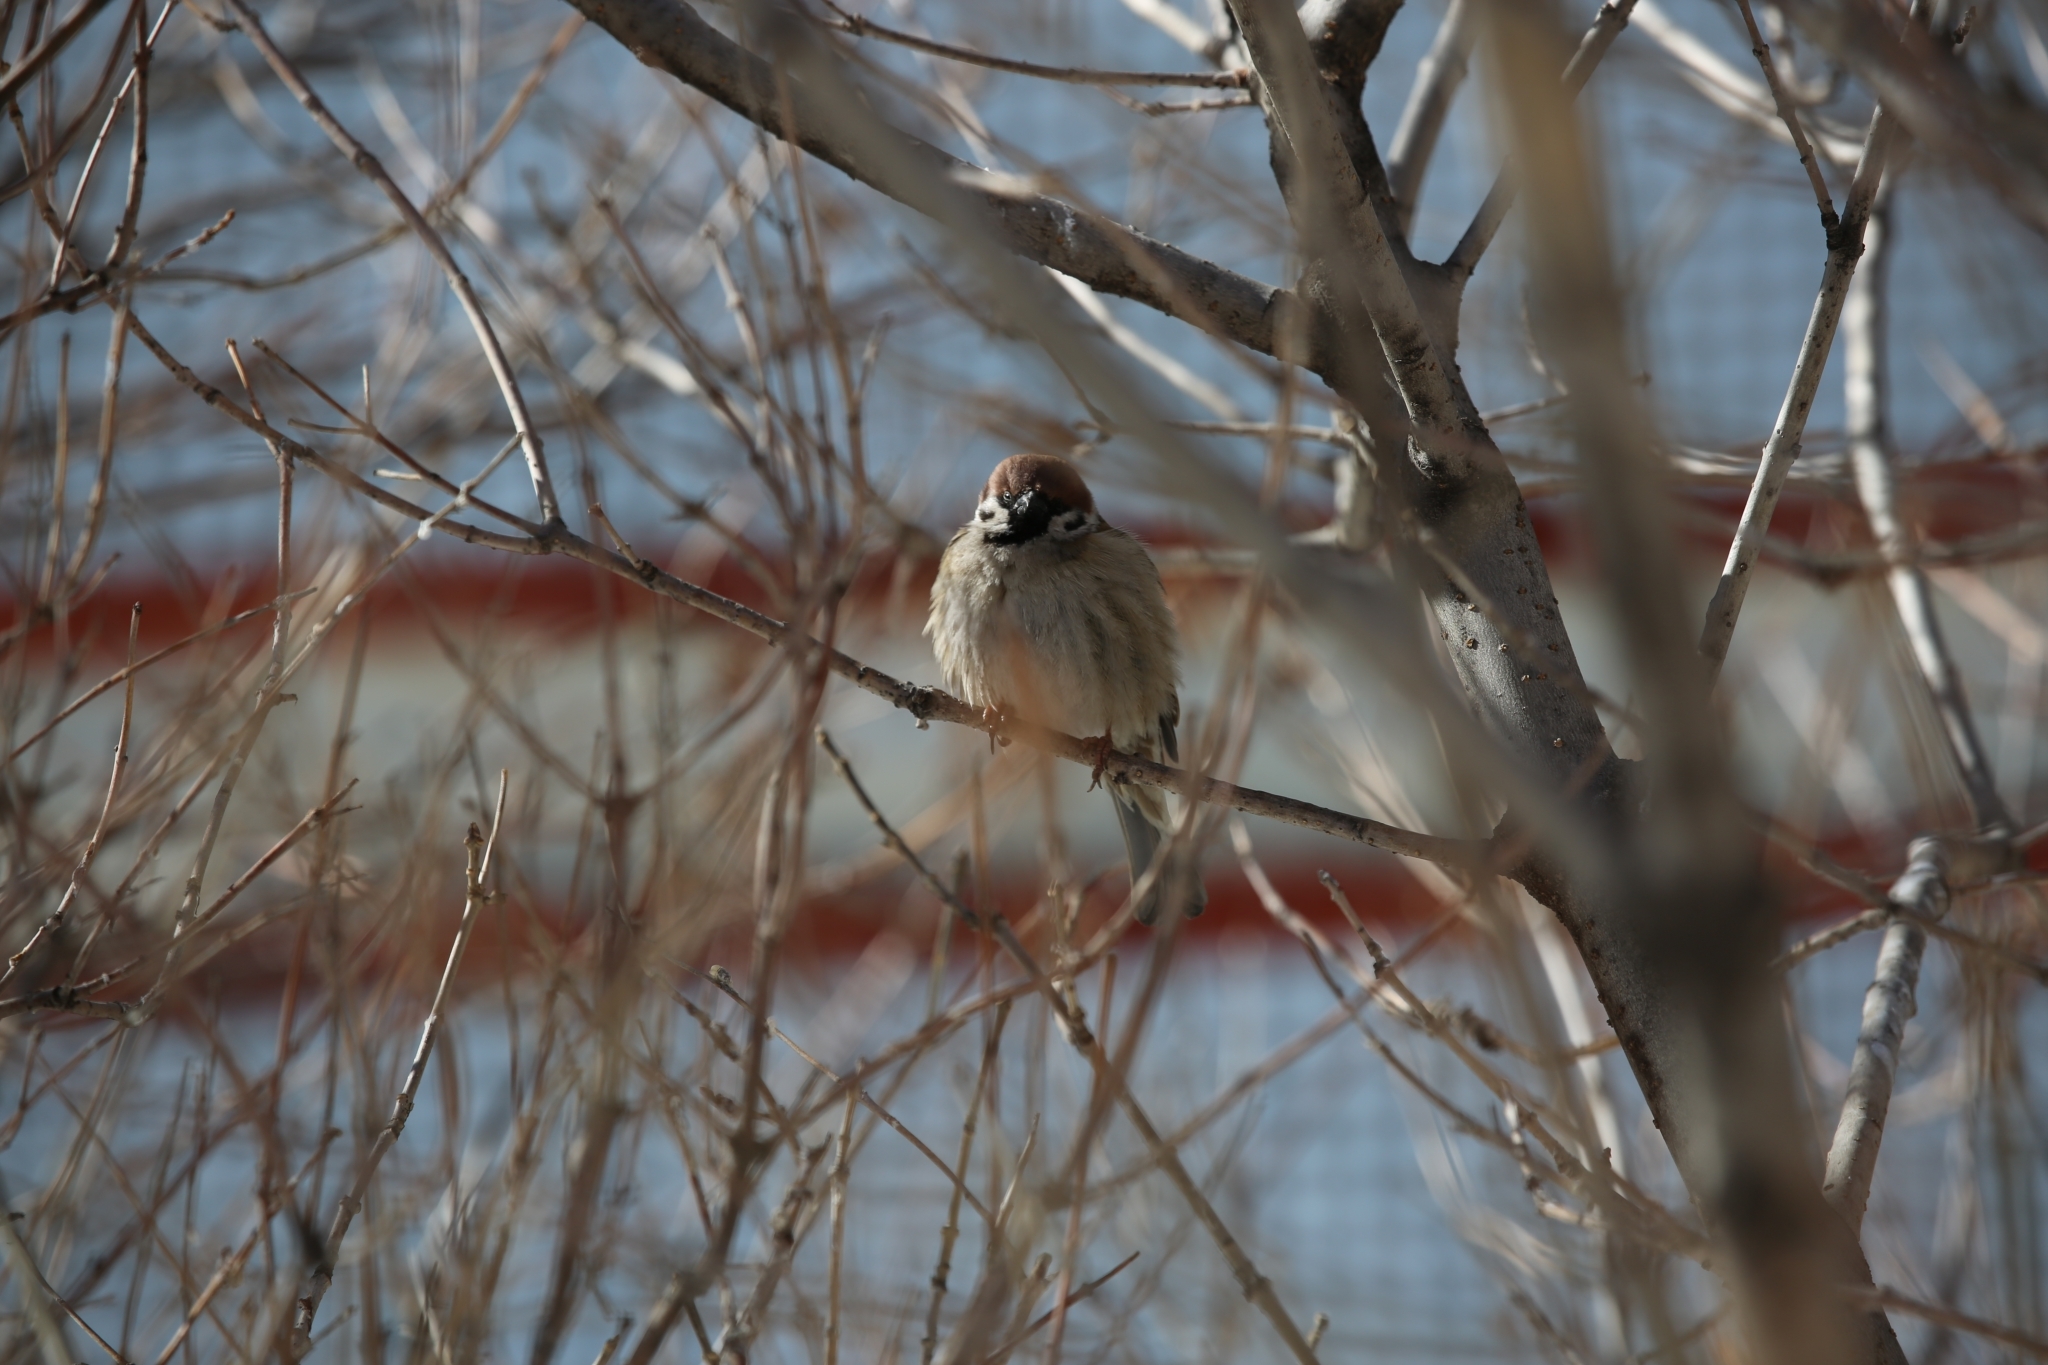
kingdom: Animalia
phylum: Chordata
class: Aves
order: Passeriformes
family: Passeridae
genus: Passer
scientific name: Passer montanus
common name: Eurasian tree sparrow
